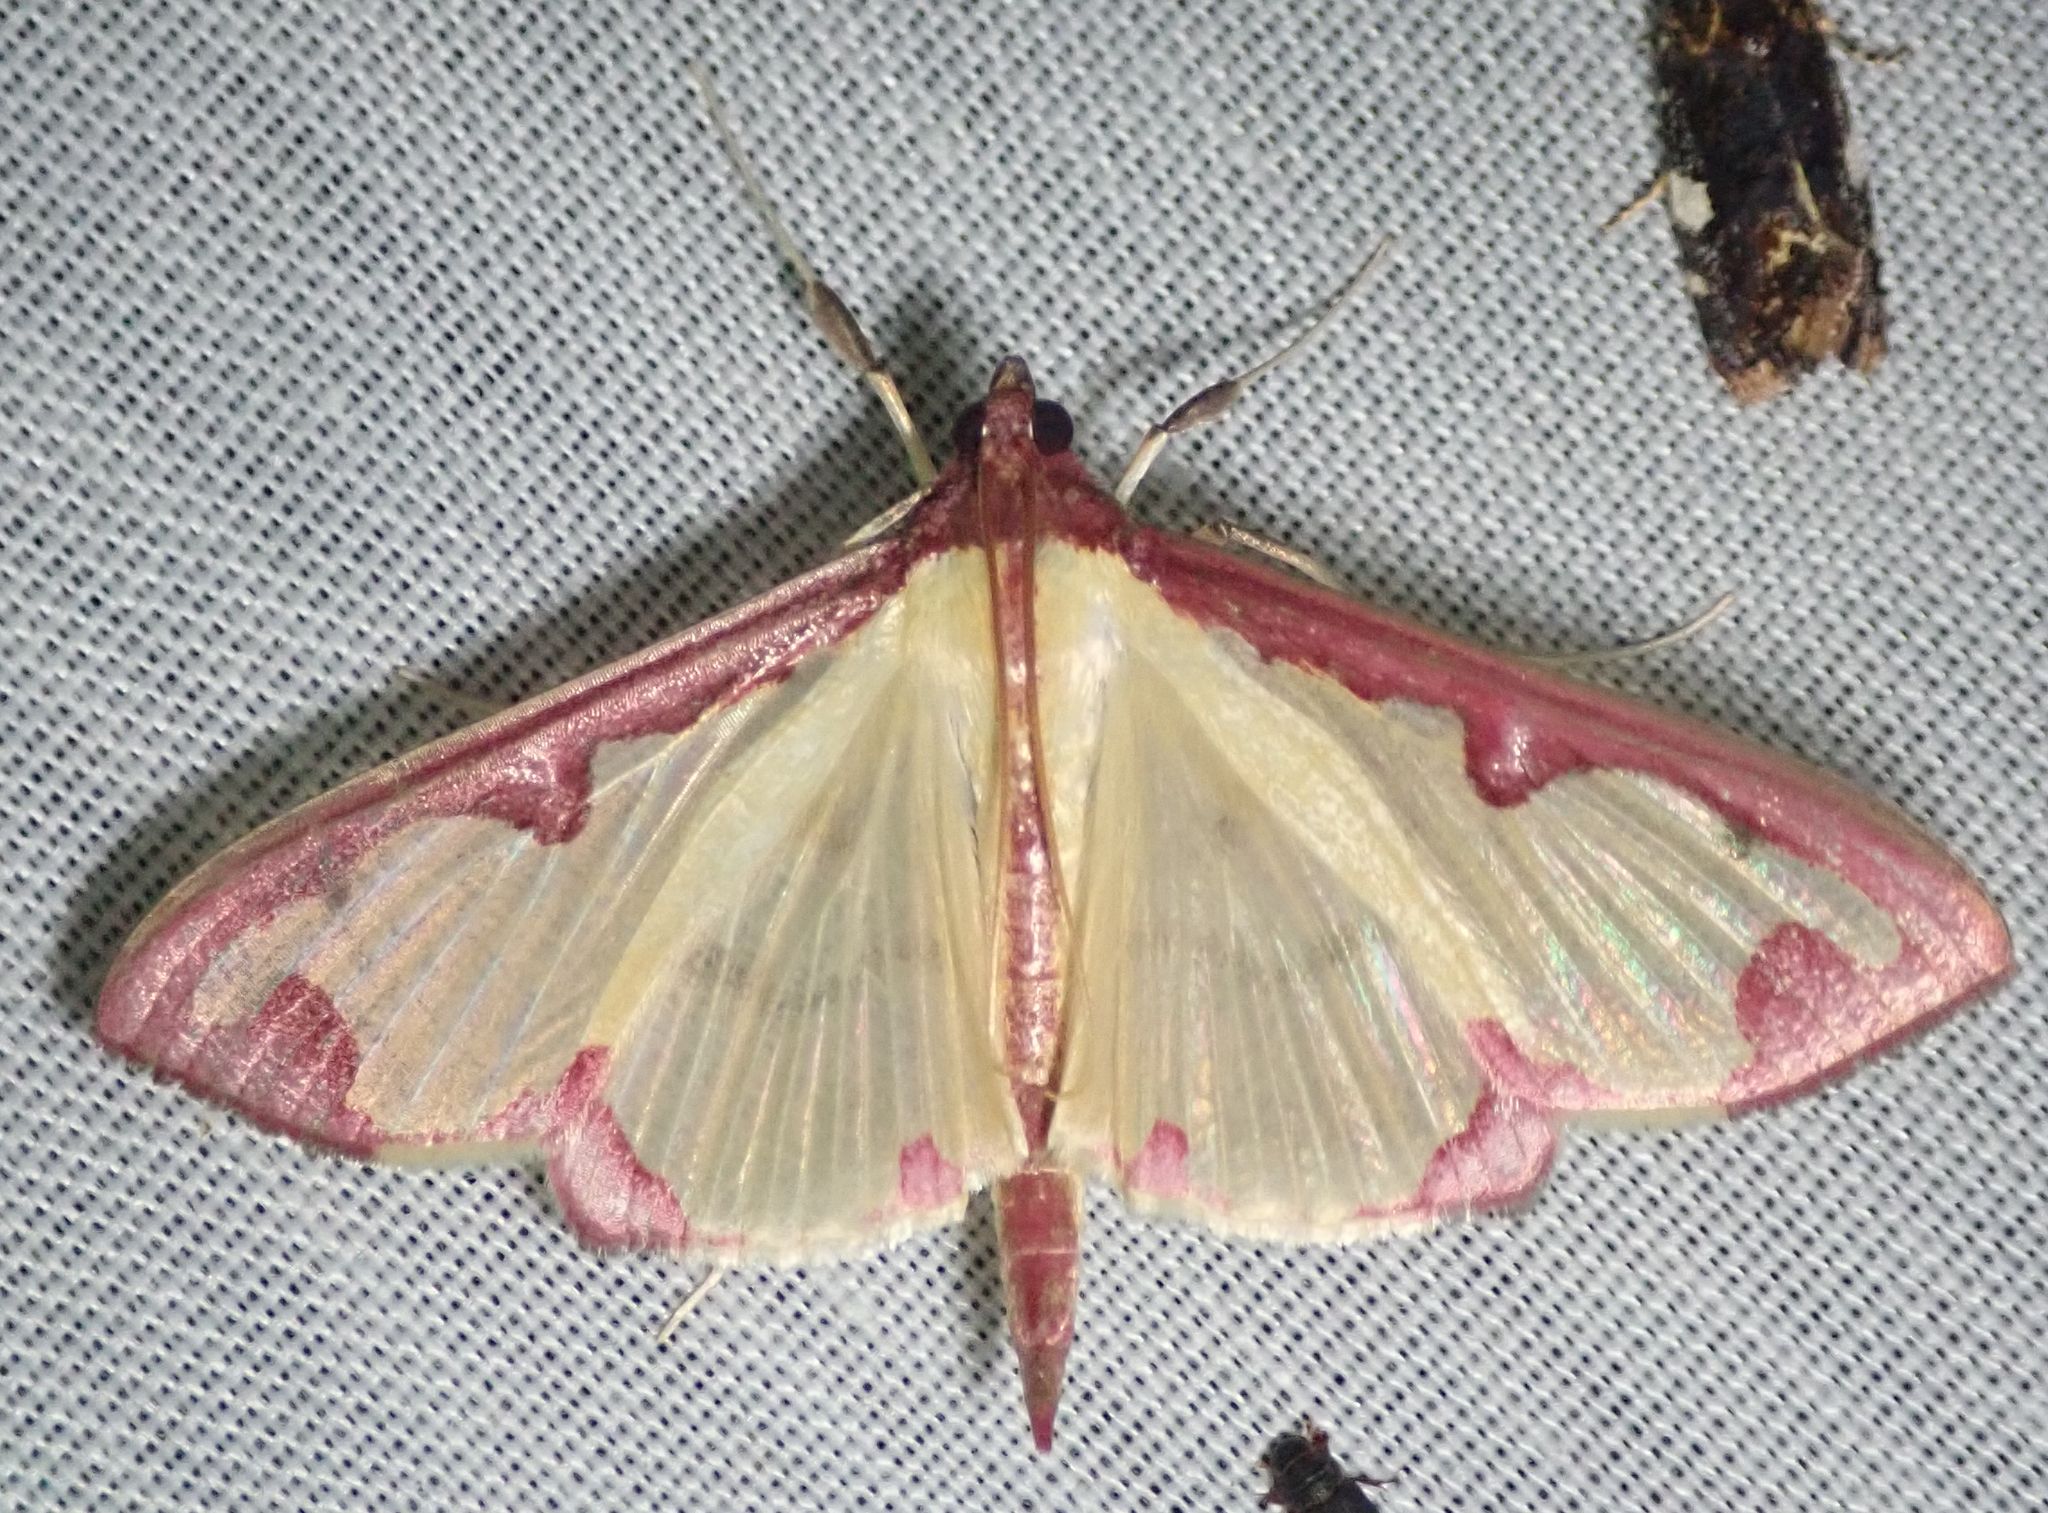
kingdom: Animalia
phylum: Arthropoda
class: Insecta
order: Lepidoptera
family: Crambidae
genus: Cadarena
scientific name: Cadarena pudoraria
